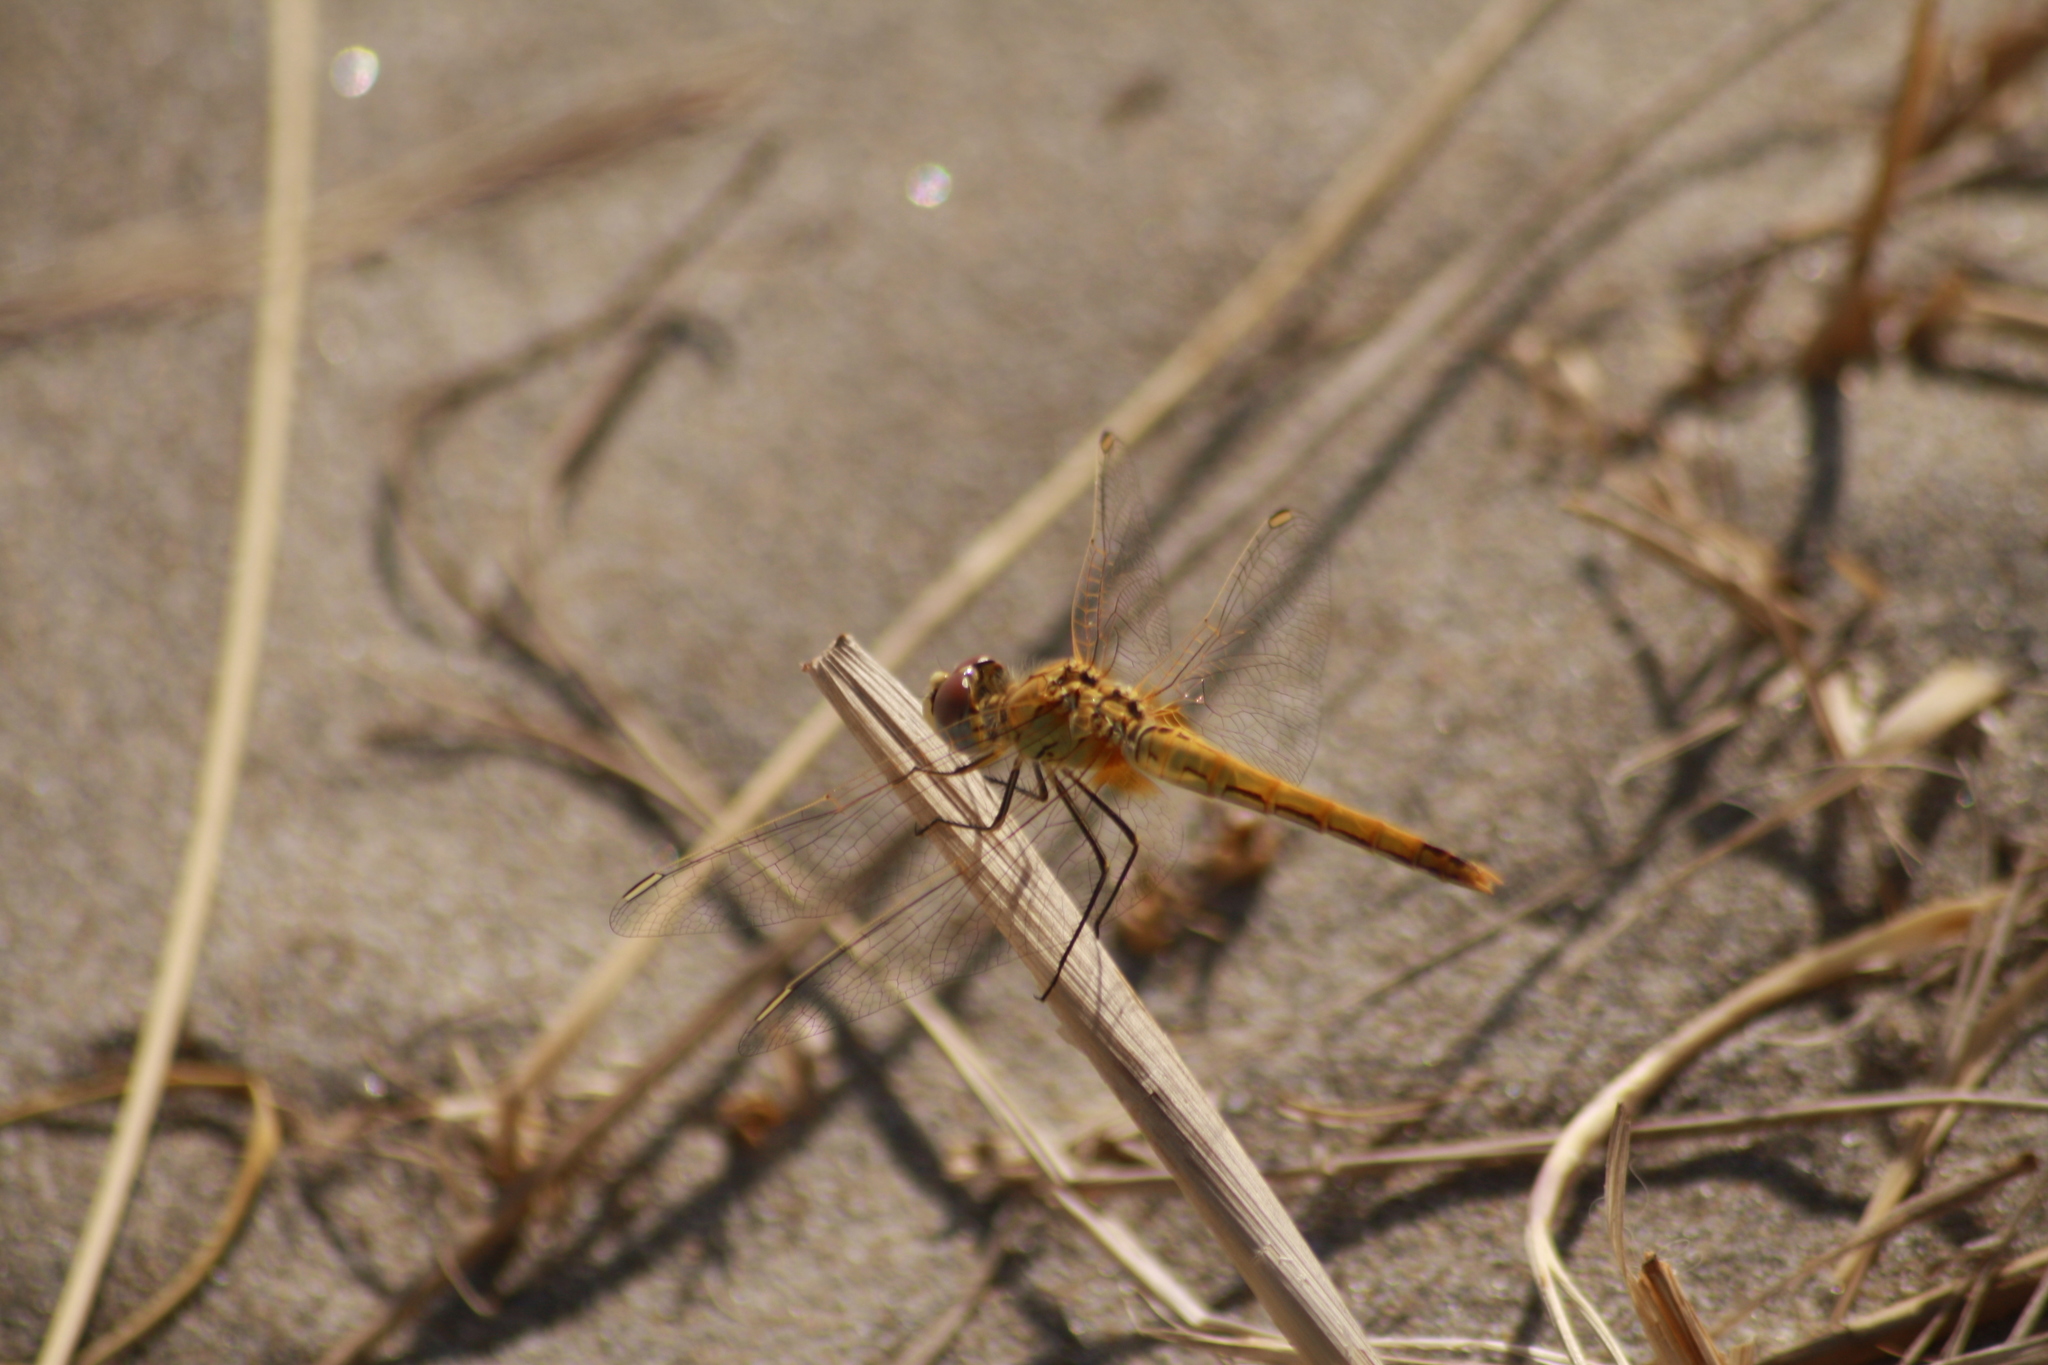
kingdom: Animalia
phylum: Arthropoda
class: Insecta
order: Odonata
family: Libellulidae
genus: Sympetrum
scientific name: Sympetrum fonscolombii
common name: Red-veined darter
